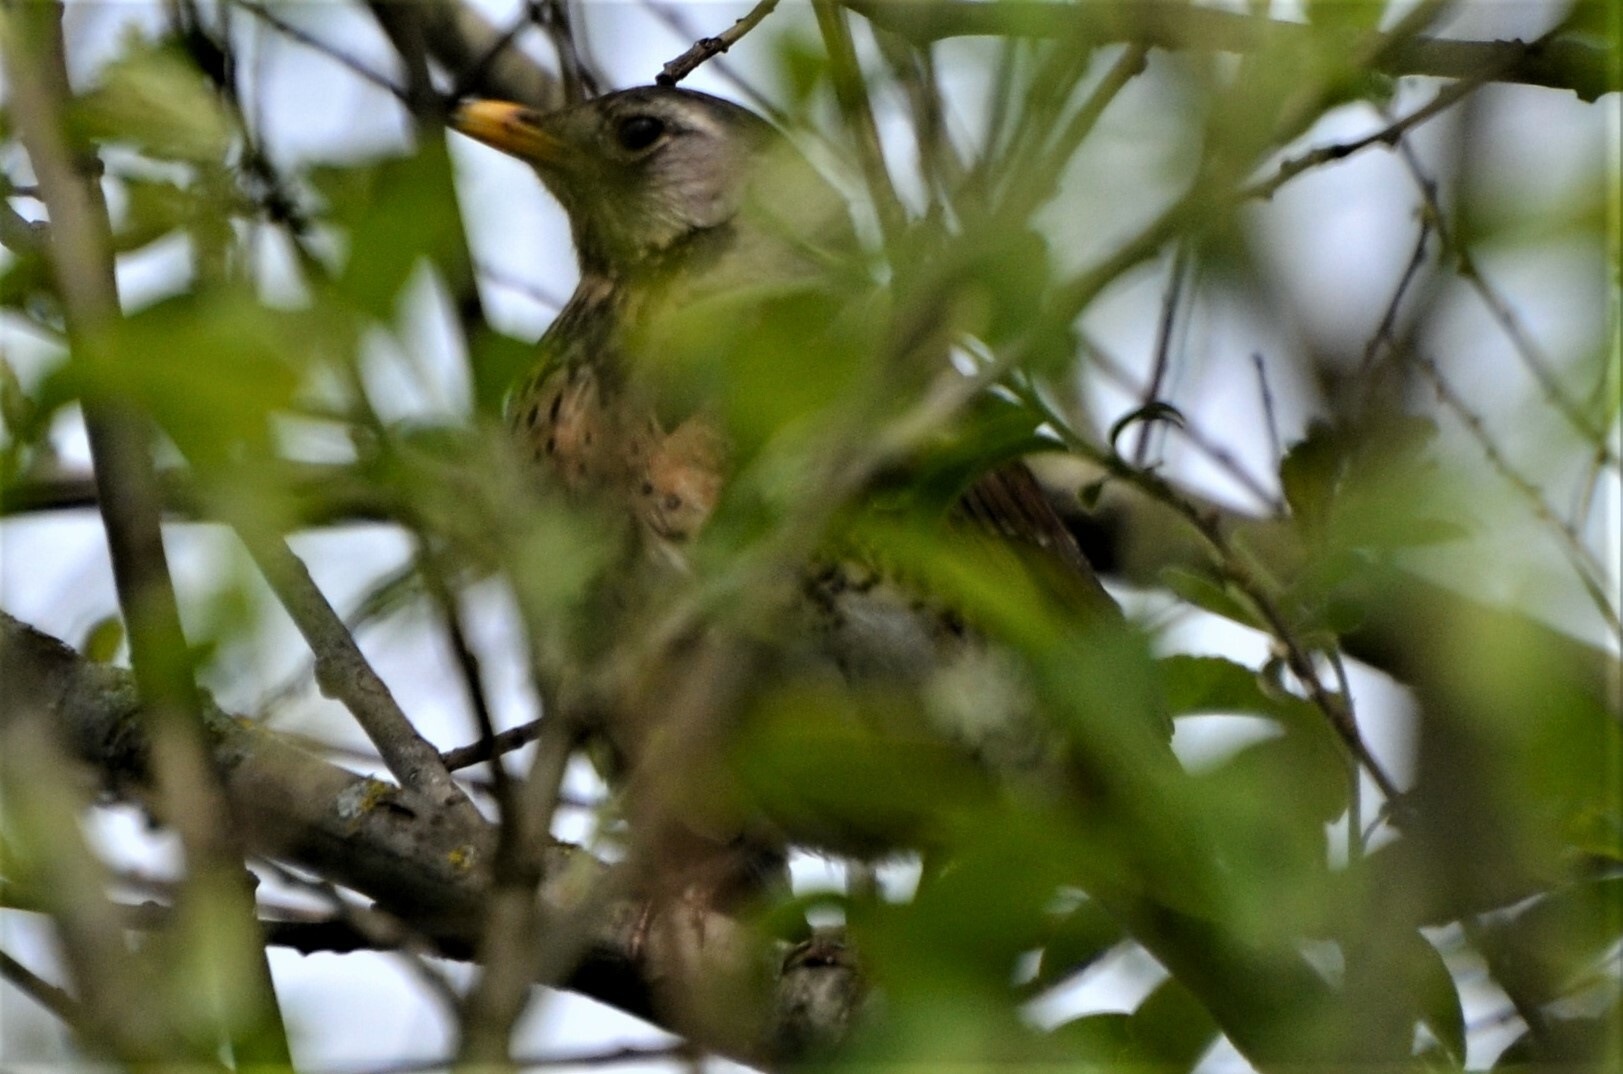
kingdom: Animalia
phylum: Chordata
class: Aves
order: Passeriformes
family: Turdidae
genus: Turdus
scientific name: Turdus pilaris
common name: Fieldfare
